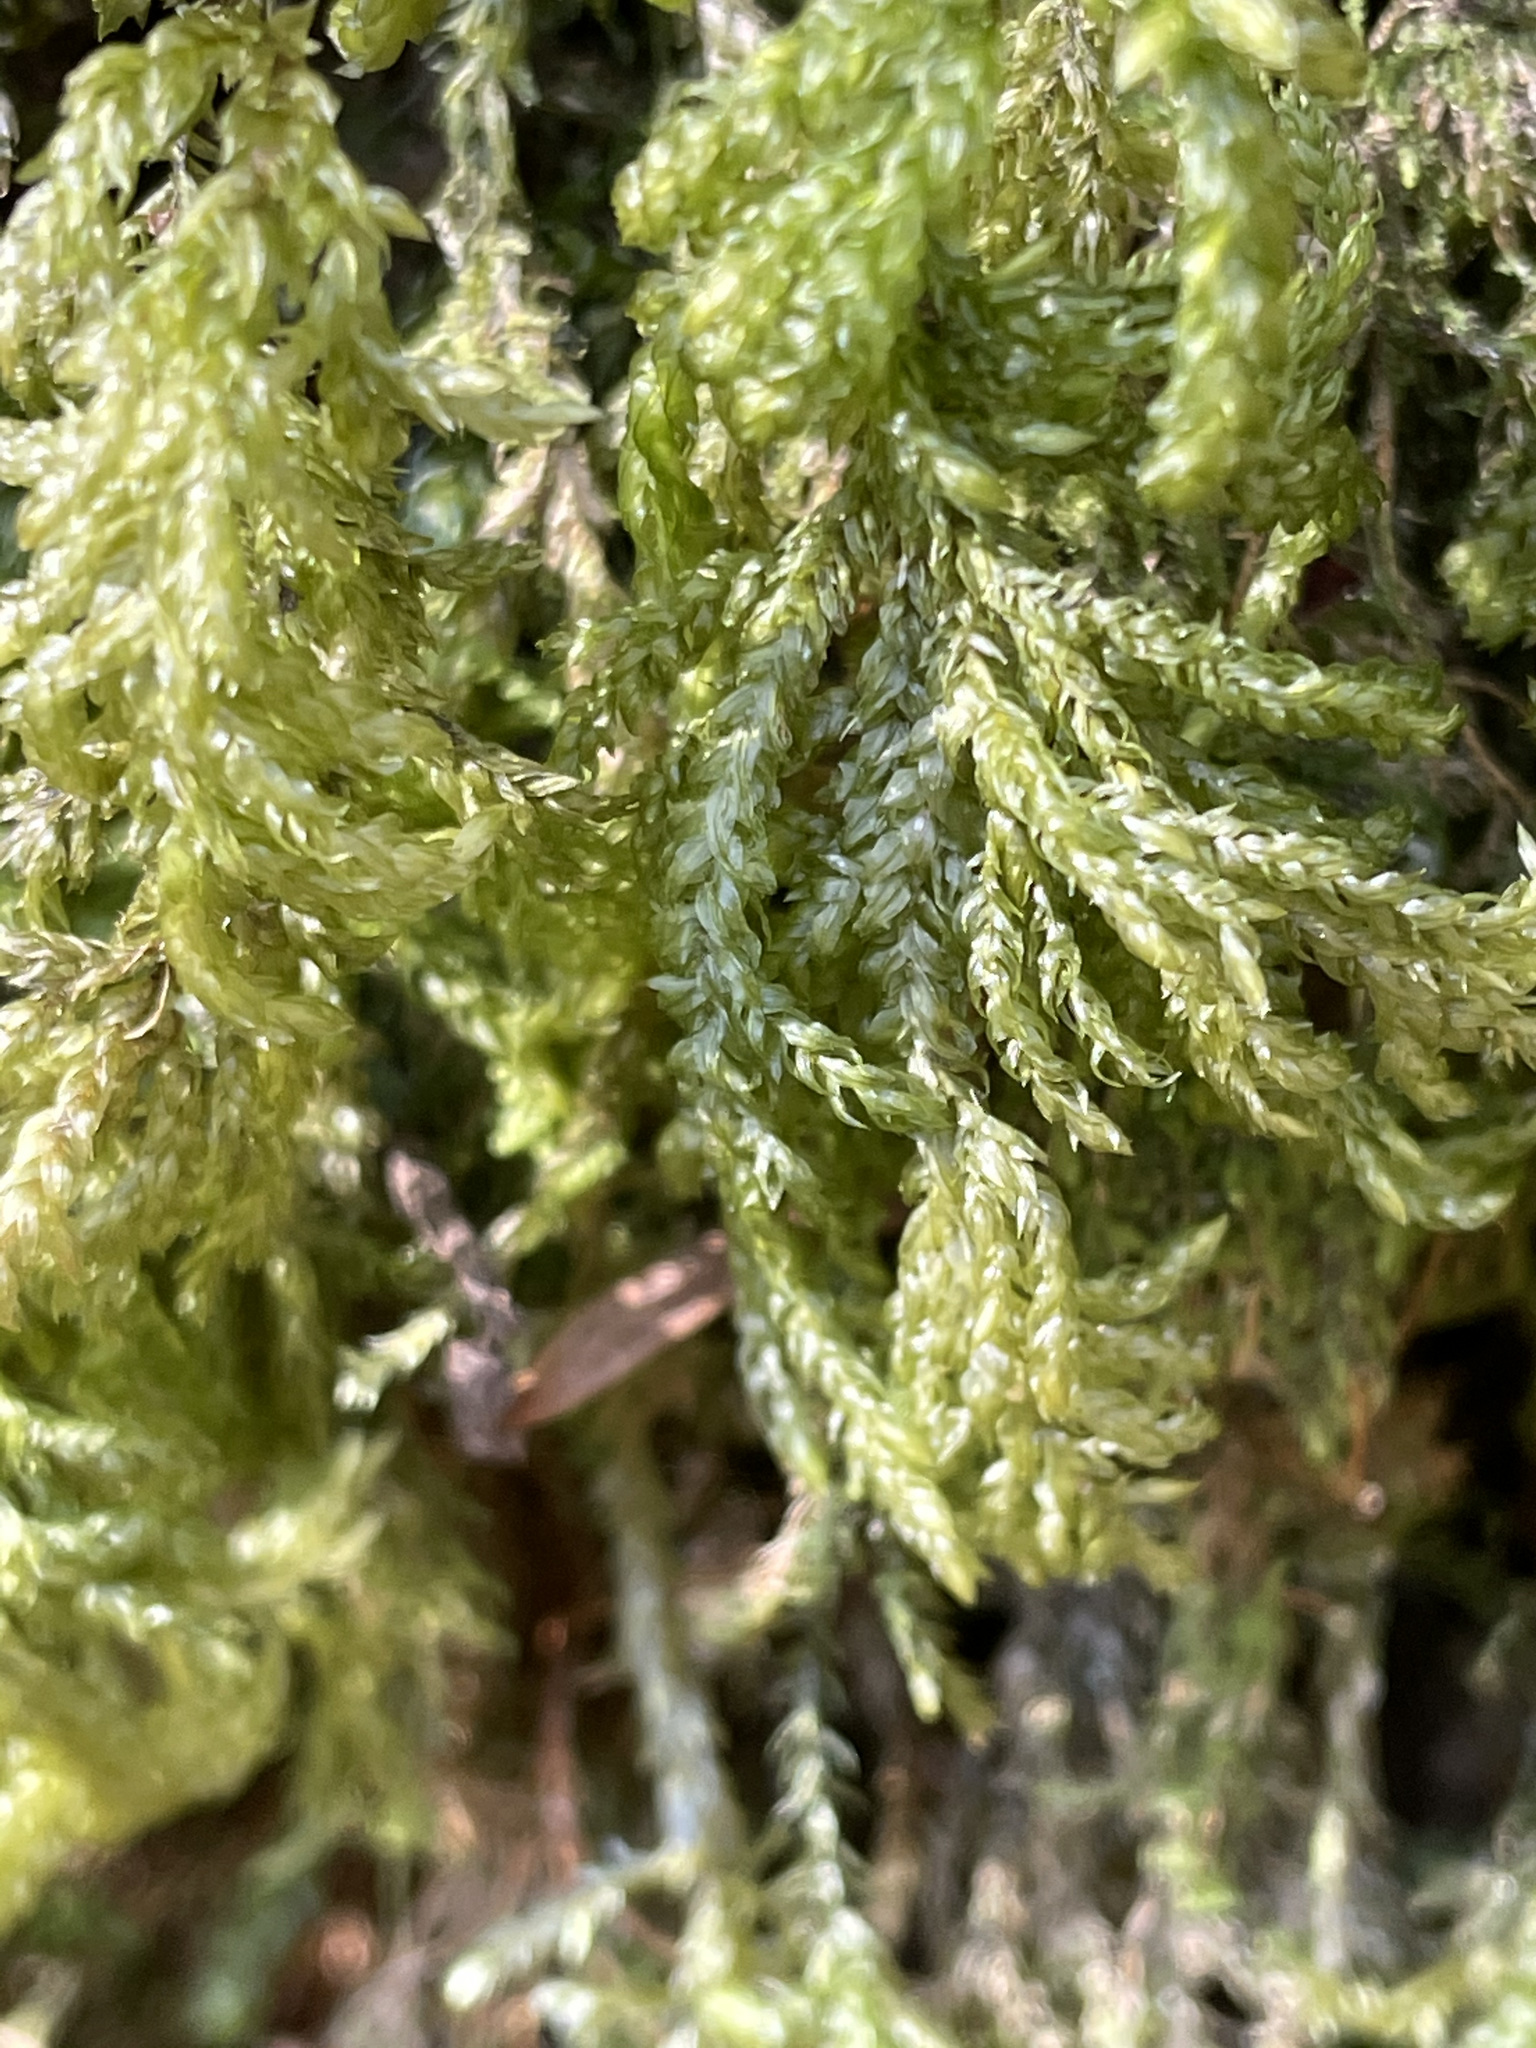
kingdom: Plantae
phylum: Bryophyta
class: Bryopsida
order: Hypnales
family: Neckeraceae
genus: Thamnobryum
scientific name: Thamnobryum alopecurum
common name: Fox-tail feather-moss
